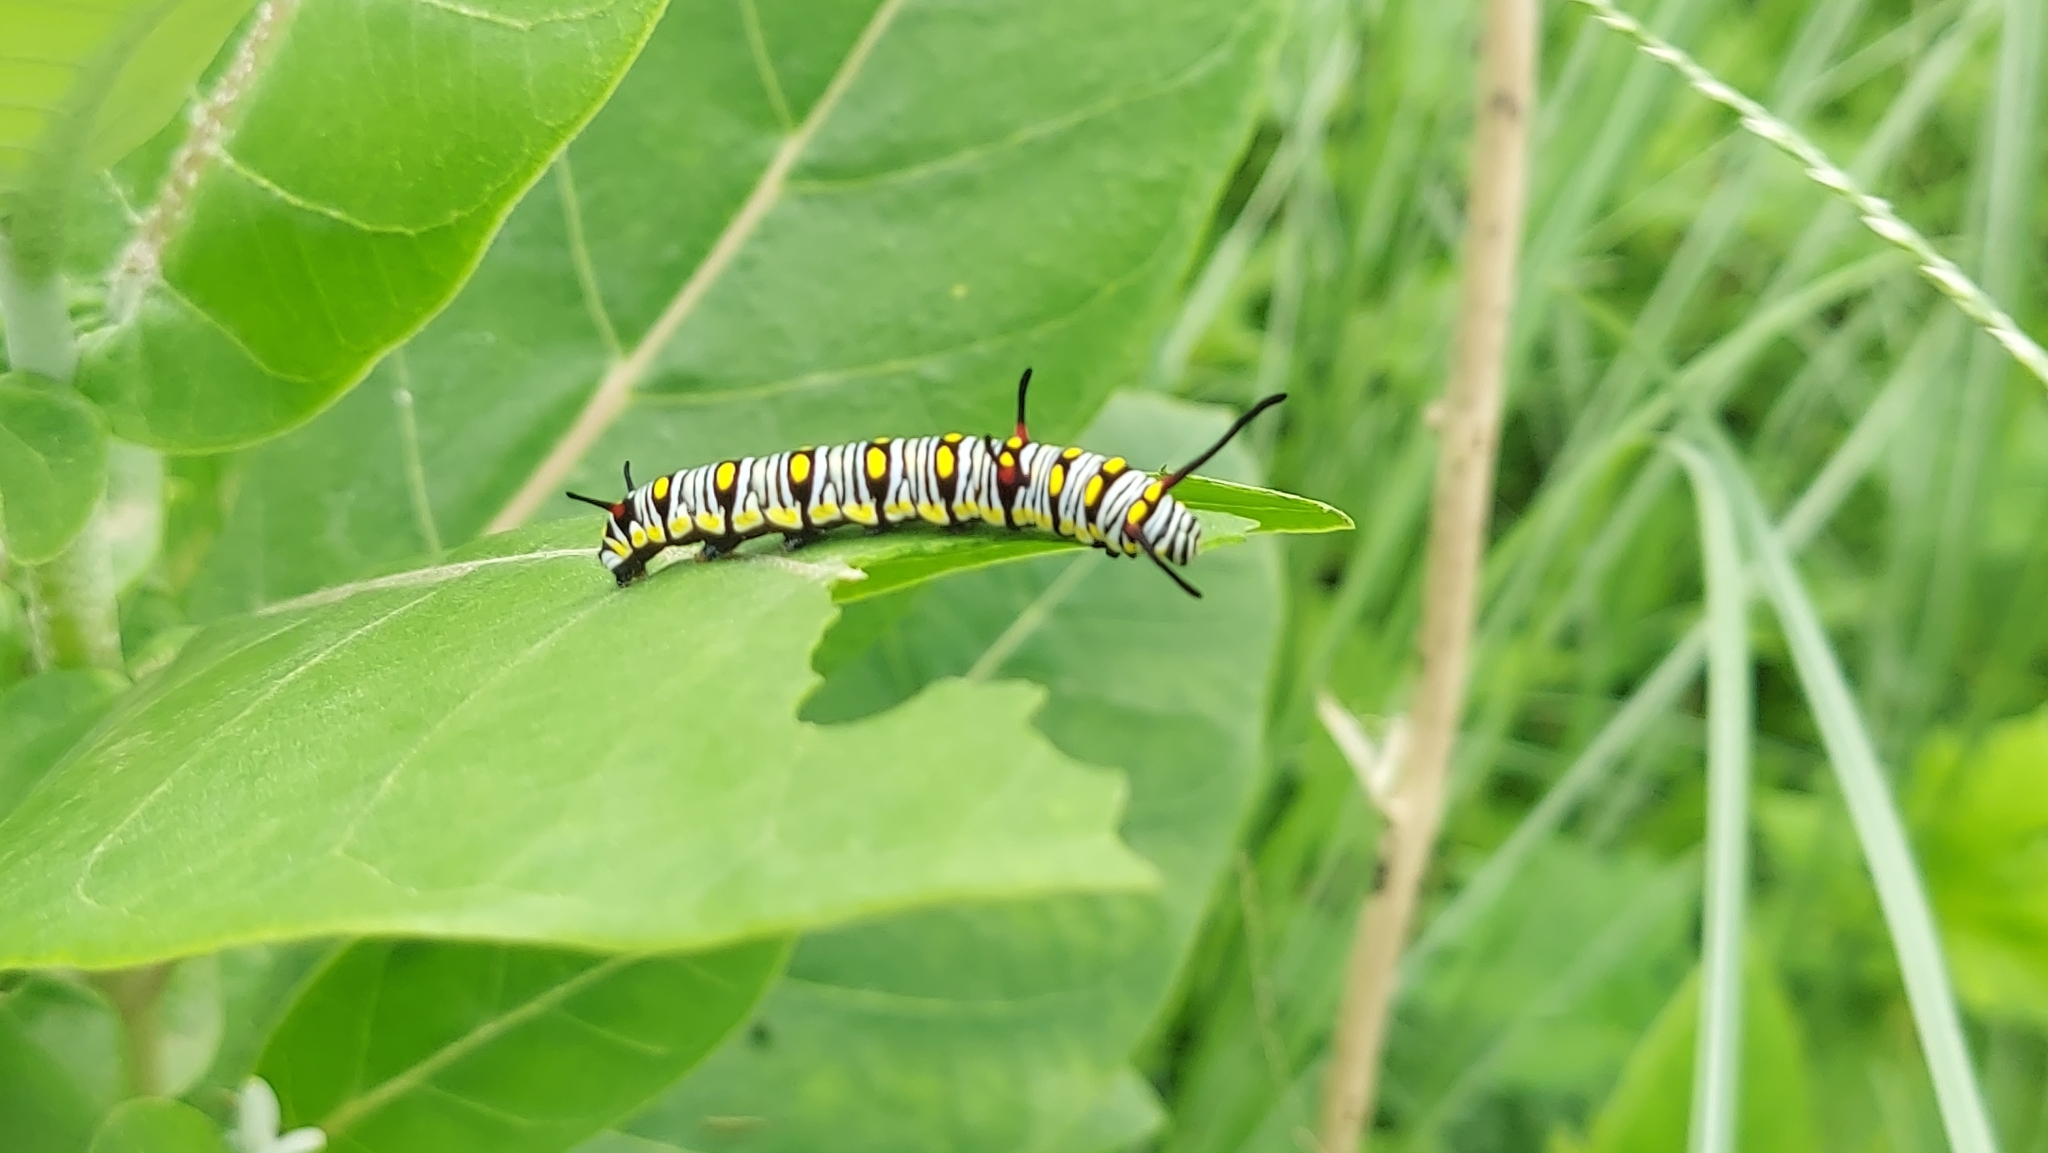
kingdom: Animalia
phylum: Arthropoda
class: Insecta
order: Lepidoptera
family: Nymphalidae
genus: Danaus
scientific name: Danaus chrysippus
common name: Plain tiger
